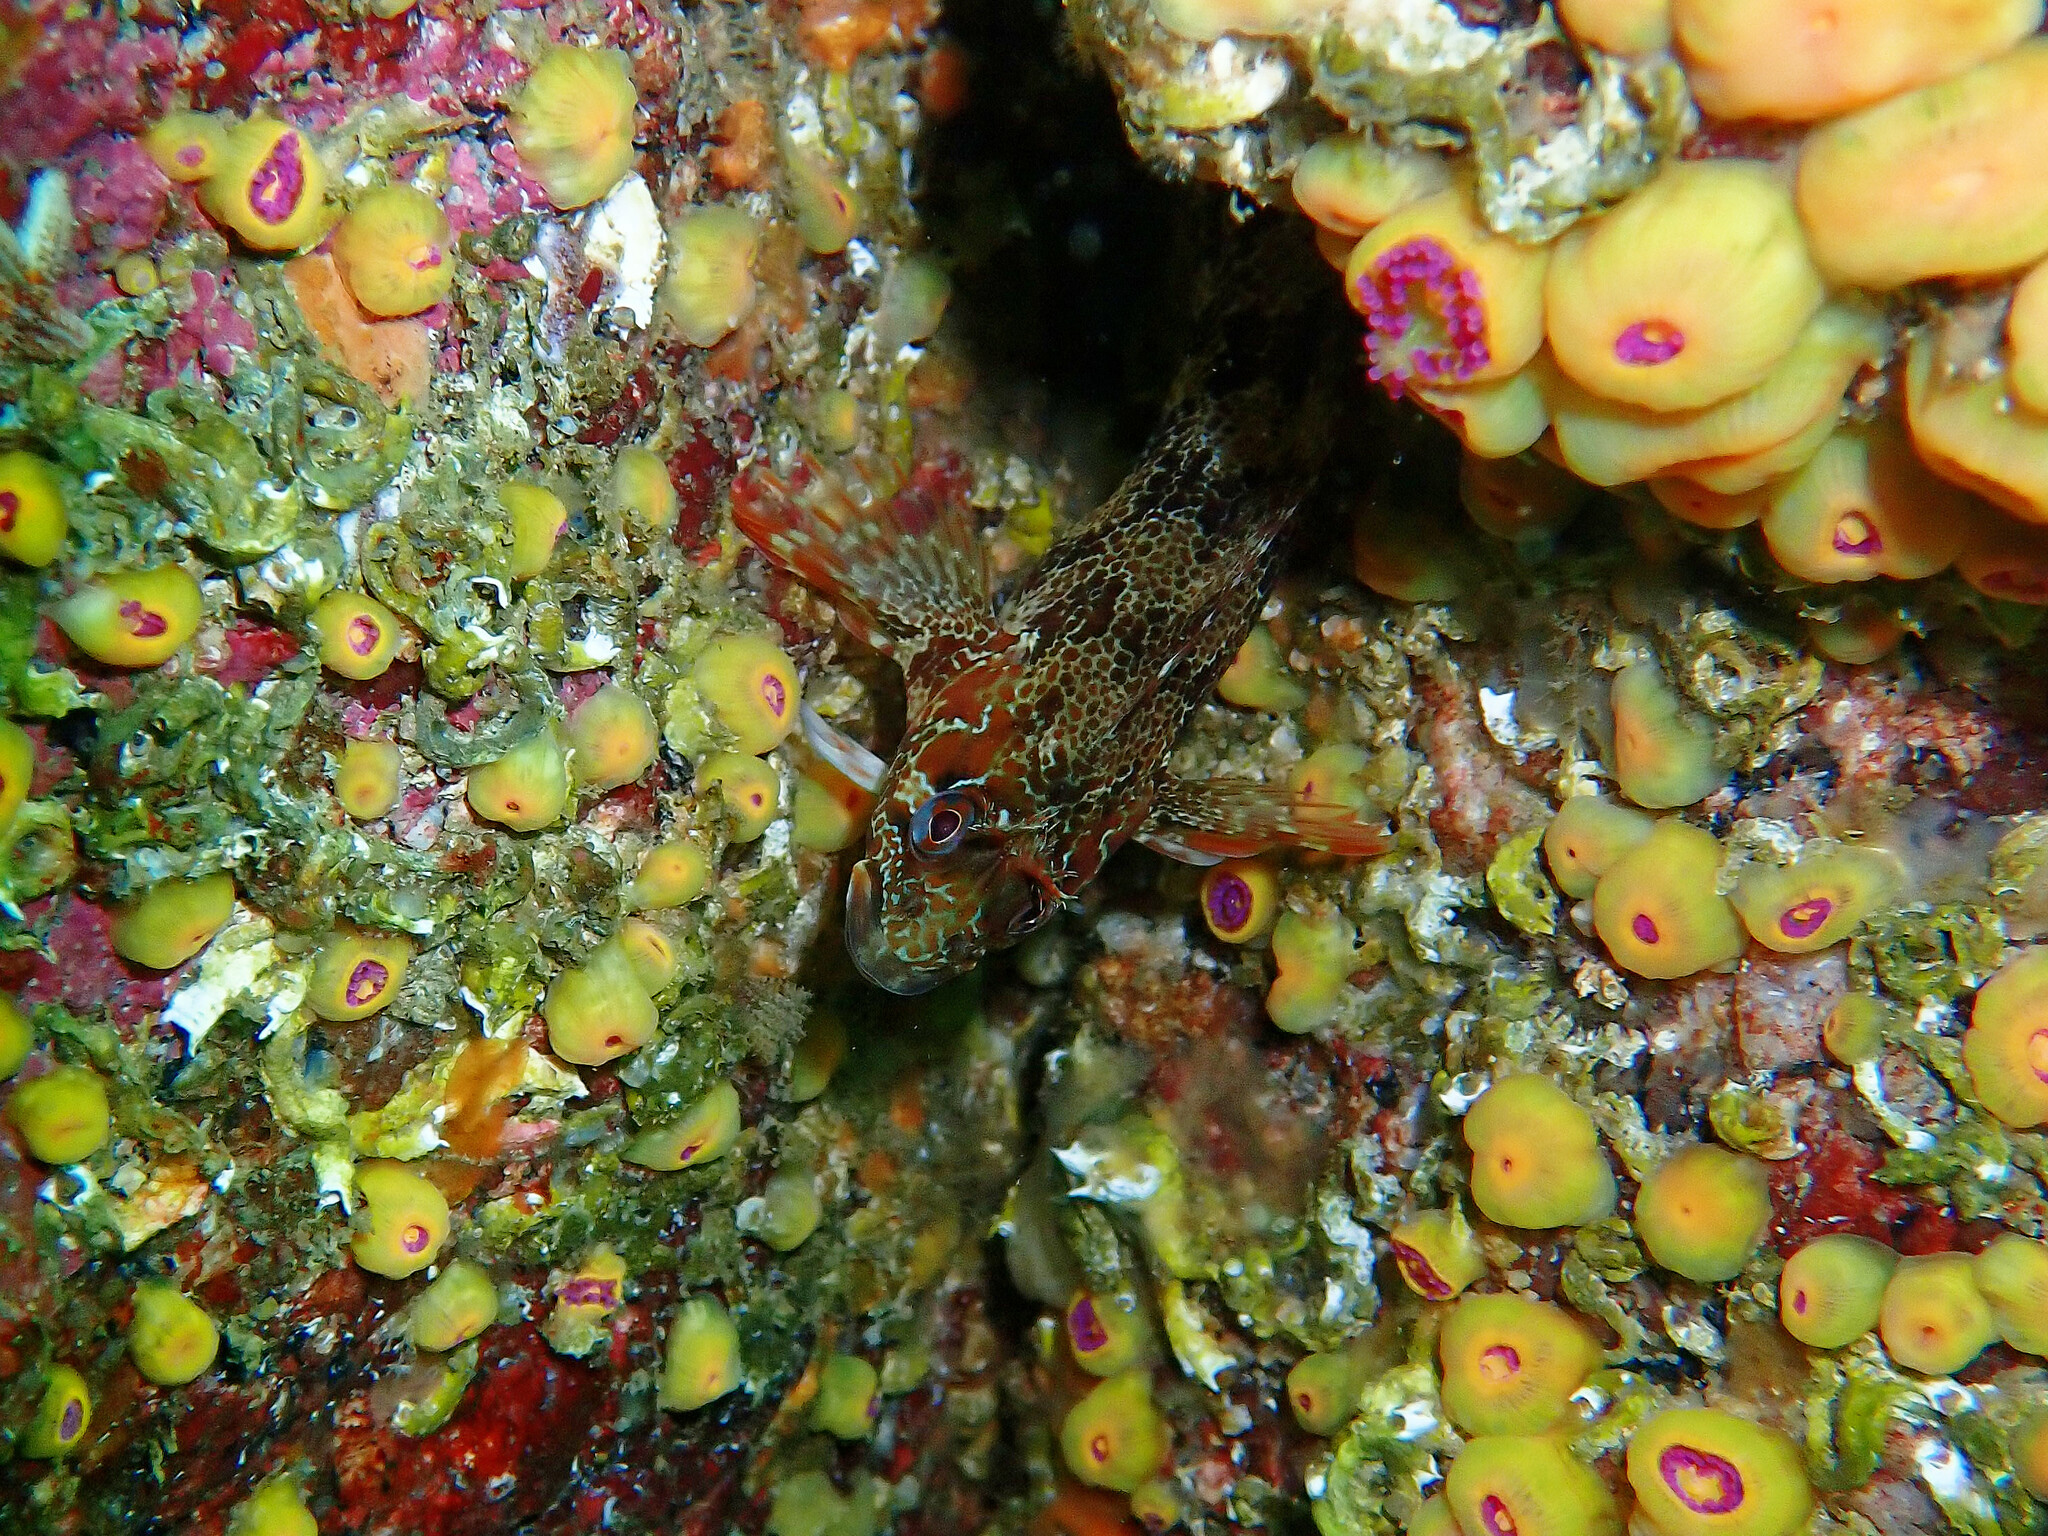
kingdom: Animalia
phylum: Chordata
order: Perciformes
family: Blenniidae
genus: Parablennius
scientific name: Parablennius gattorugine
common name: Tompot blenny
